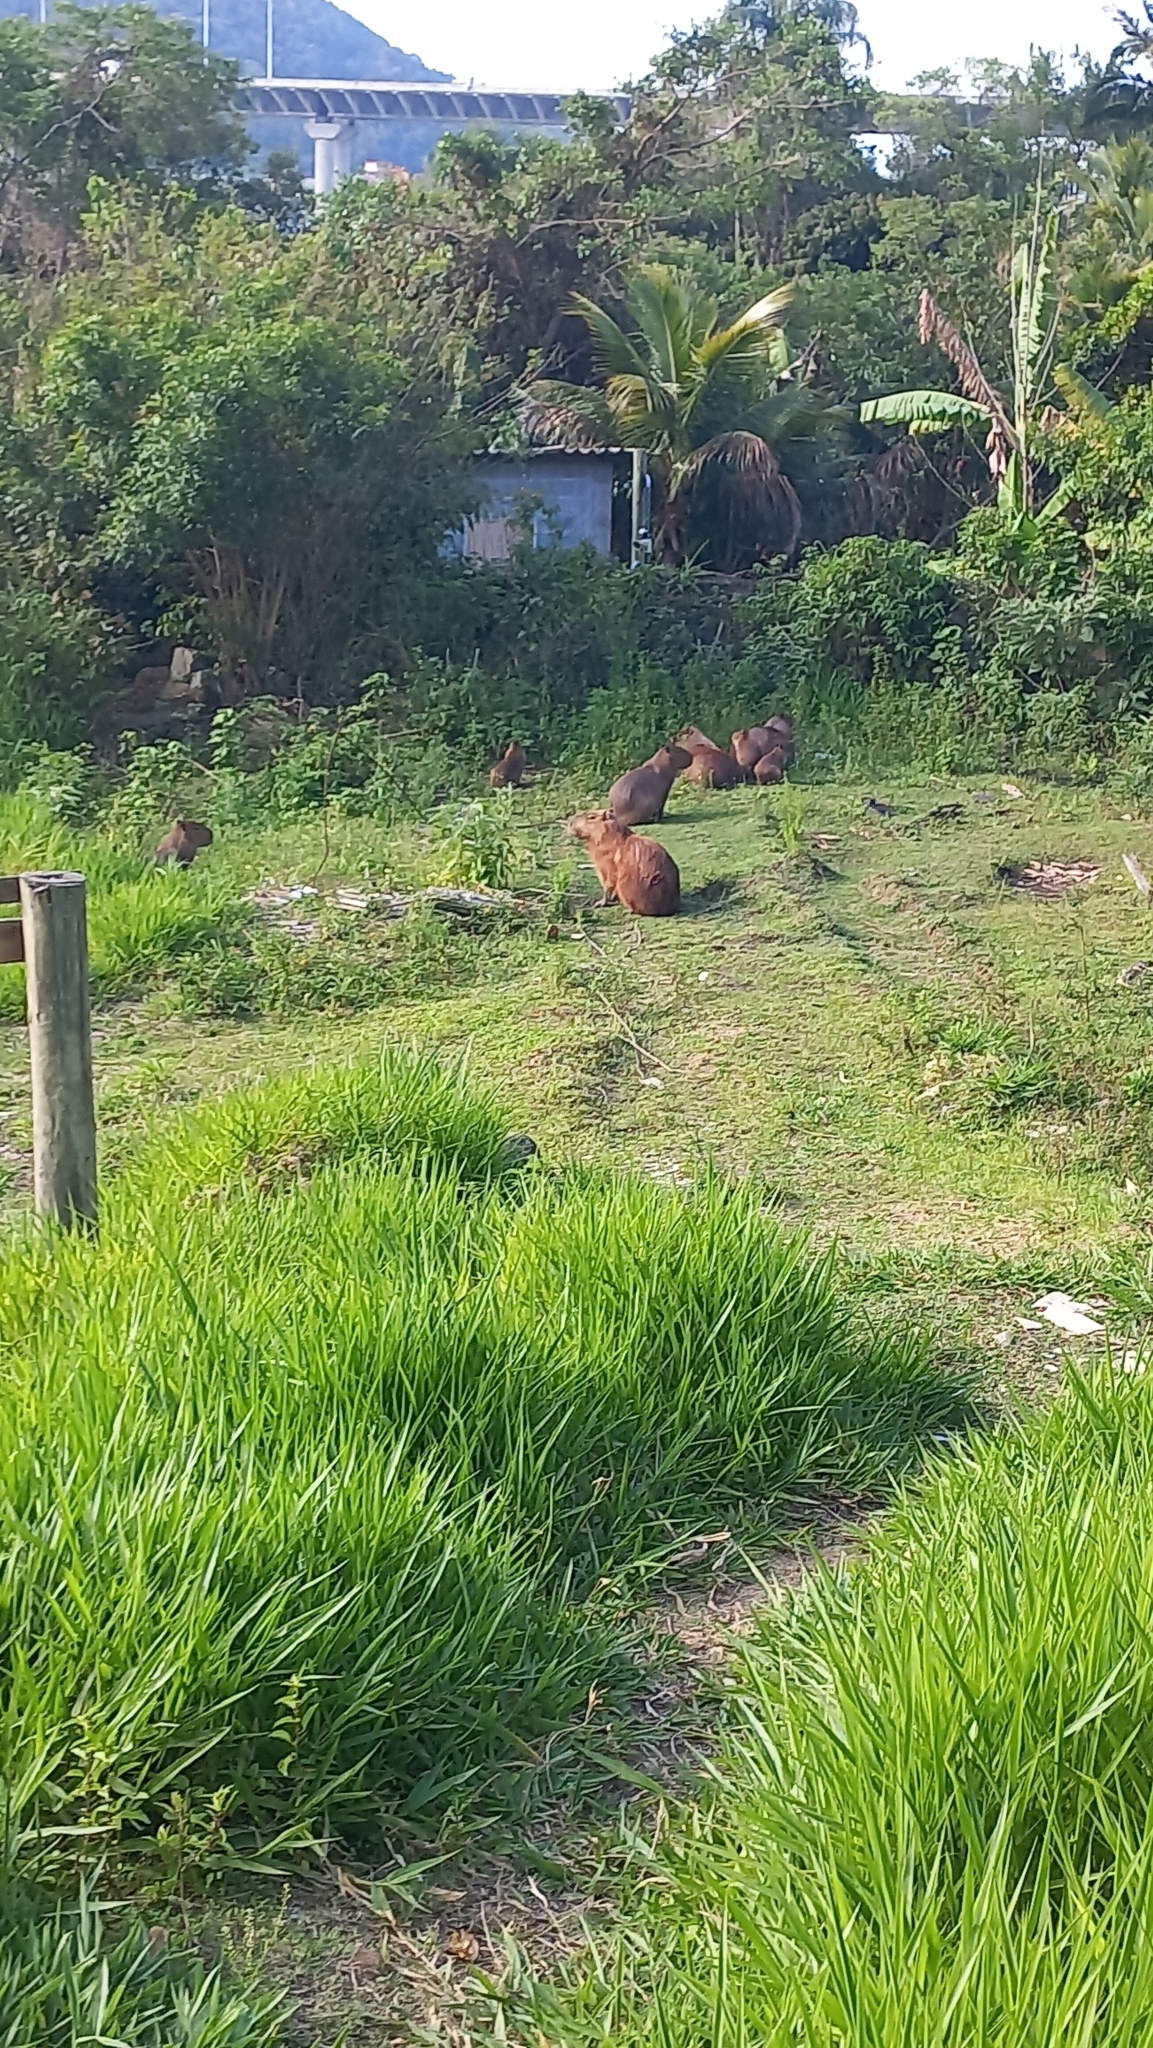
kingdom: Animalia
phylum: Chordata
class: Mammalia
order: Rodentia
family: Caviidae
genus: Hydrochoerus
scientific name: Hydrochoerus hydrochaeris
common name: Capybara
